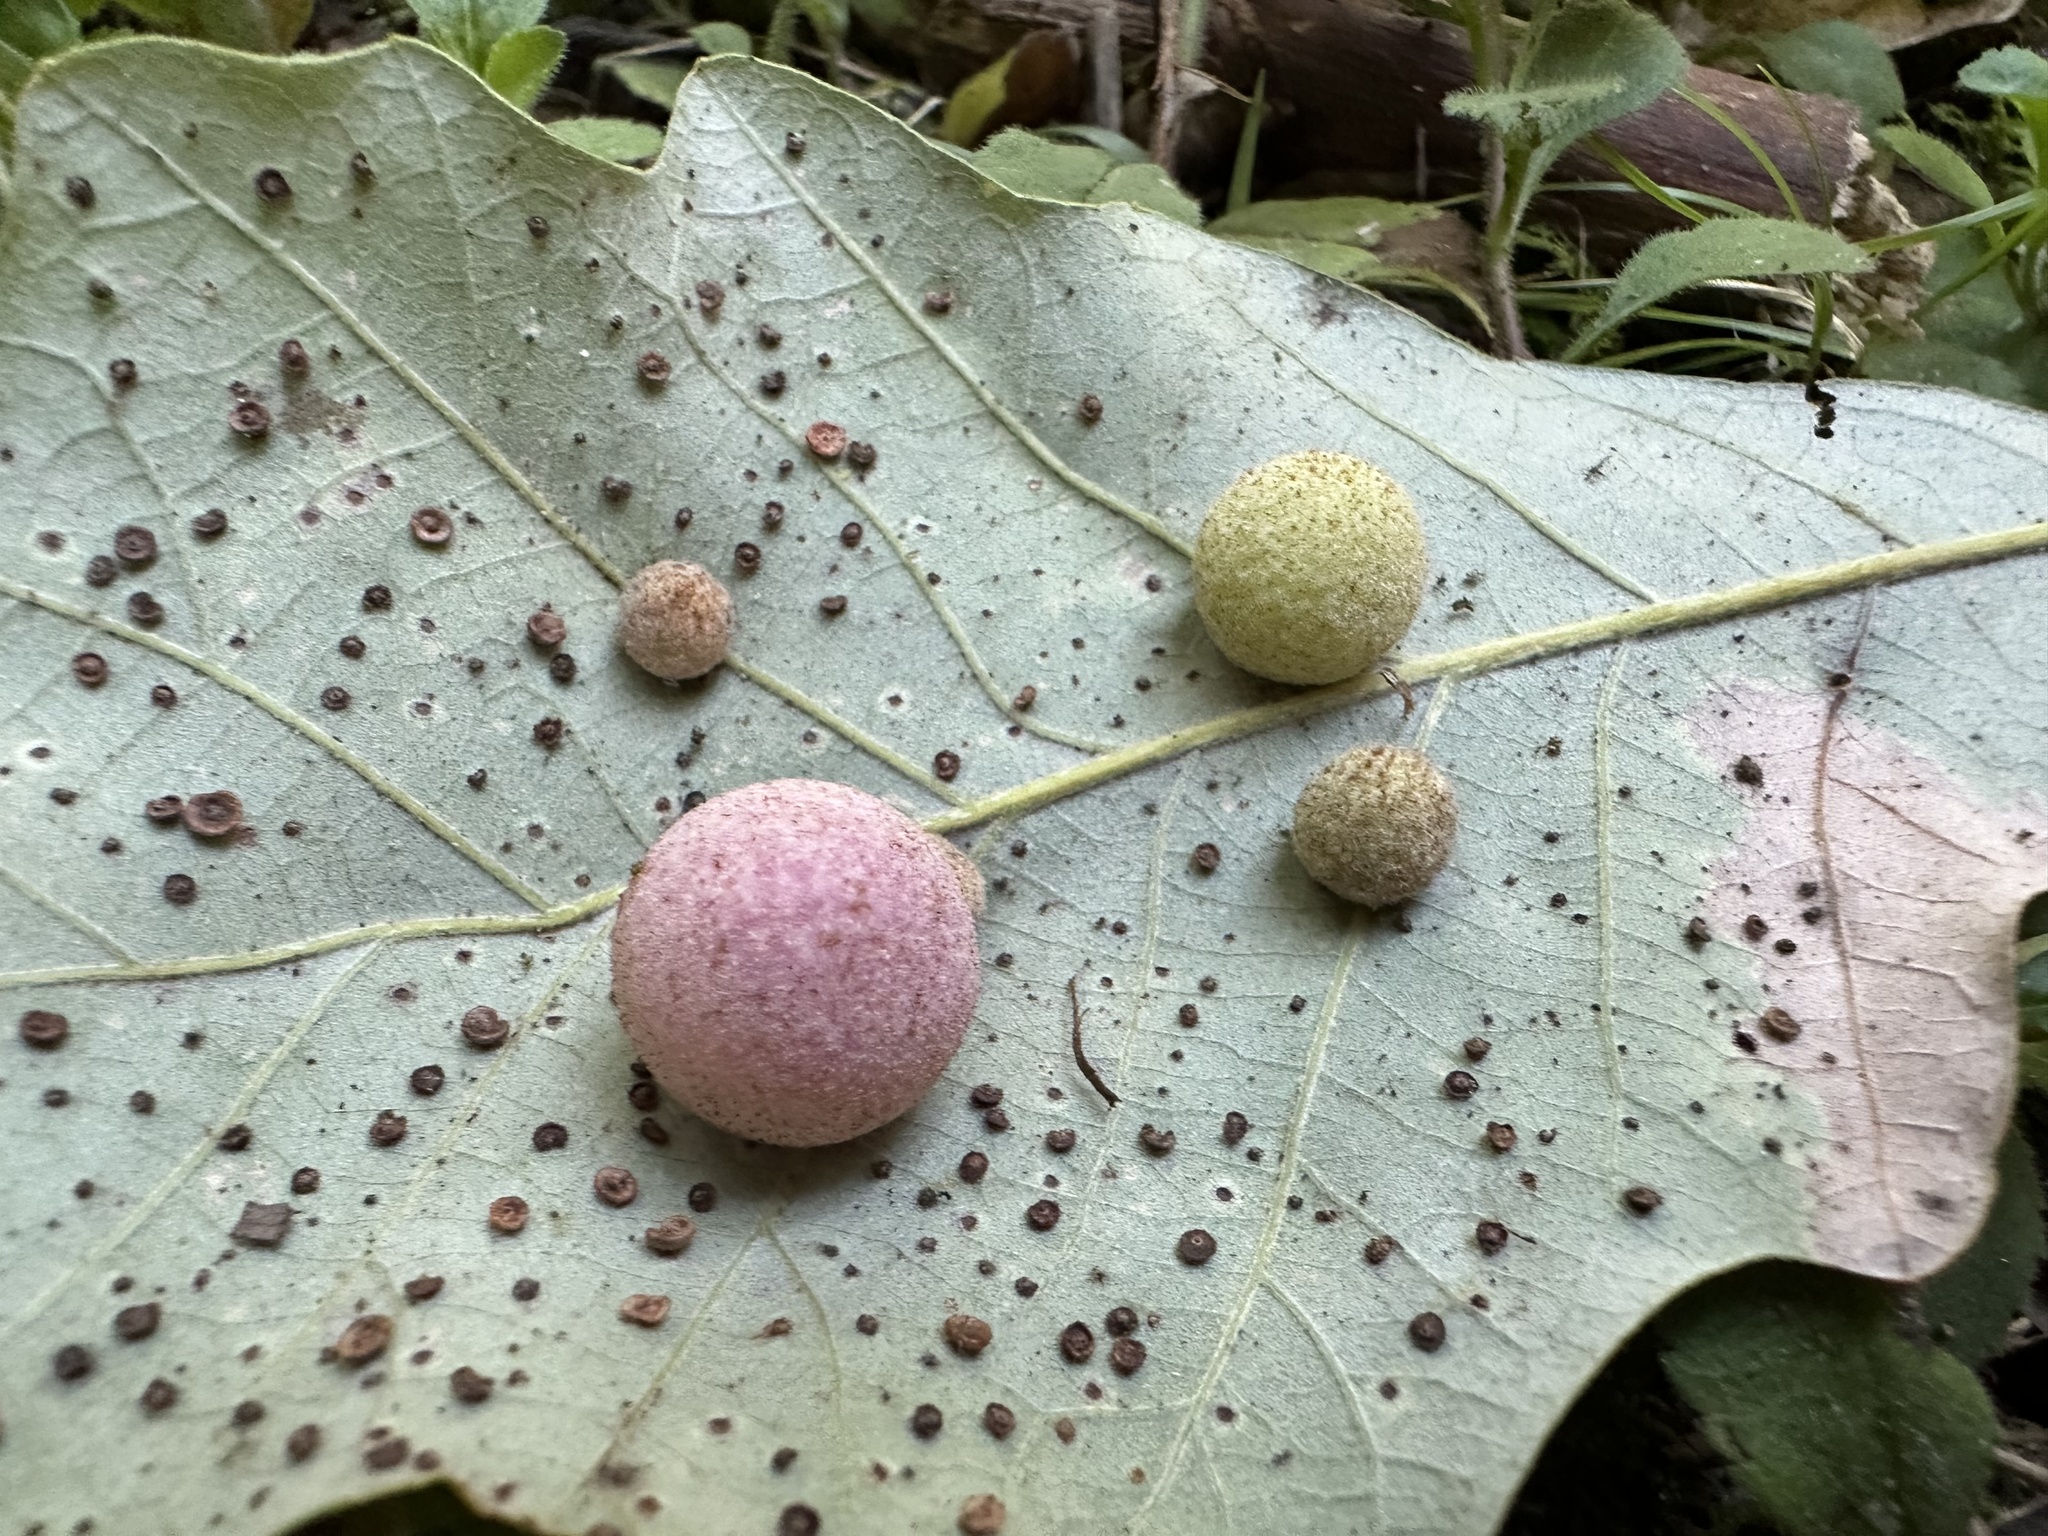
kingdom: Animalia
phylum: Arthropoda
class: Insecta
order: Hymenoptera
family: Cynipidae
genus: Philonix
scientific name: Philonix fulvicollis
